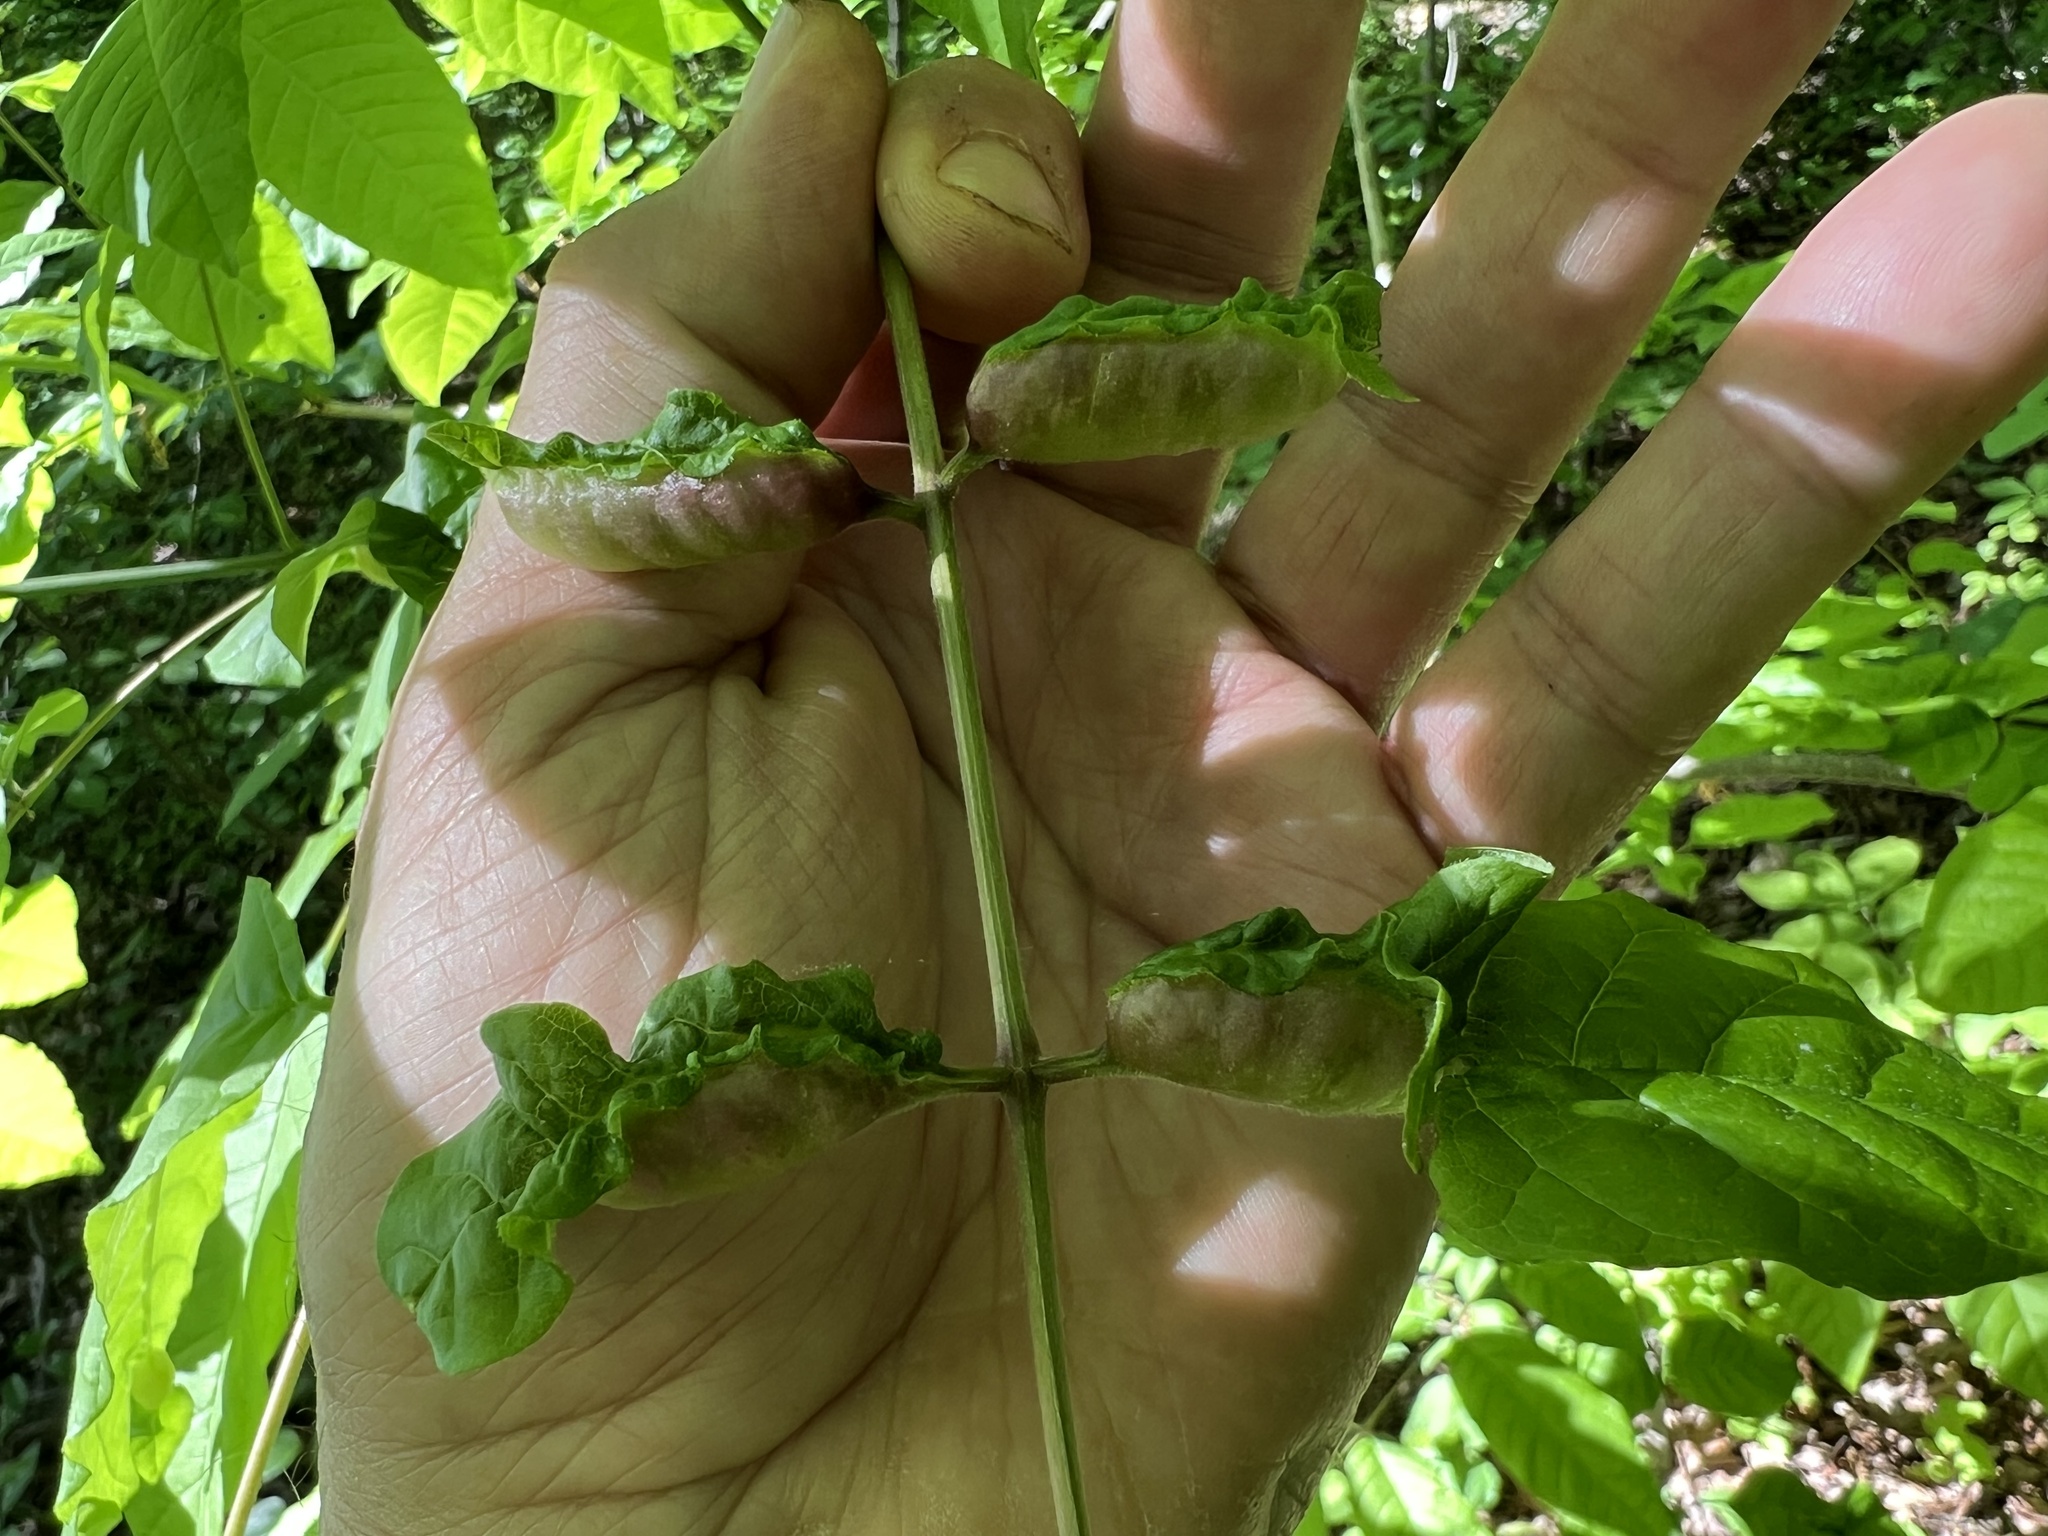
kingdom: Animalia
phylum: Arthropoda
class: Insecta
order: Diptera
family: Cecidomyiidae
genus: Dasineura
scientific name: Dasineura tumidosae
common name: Ash petiole gall midge
